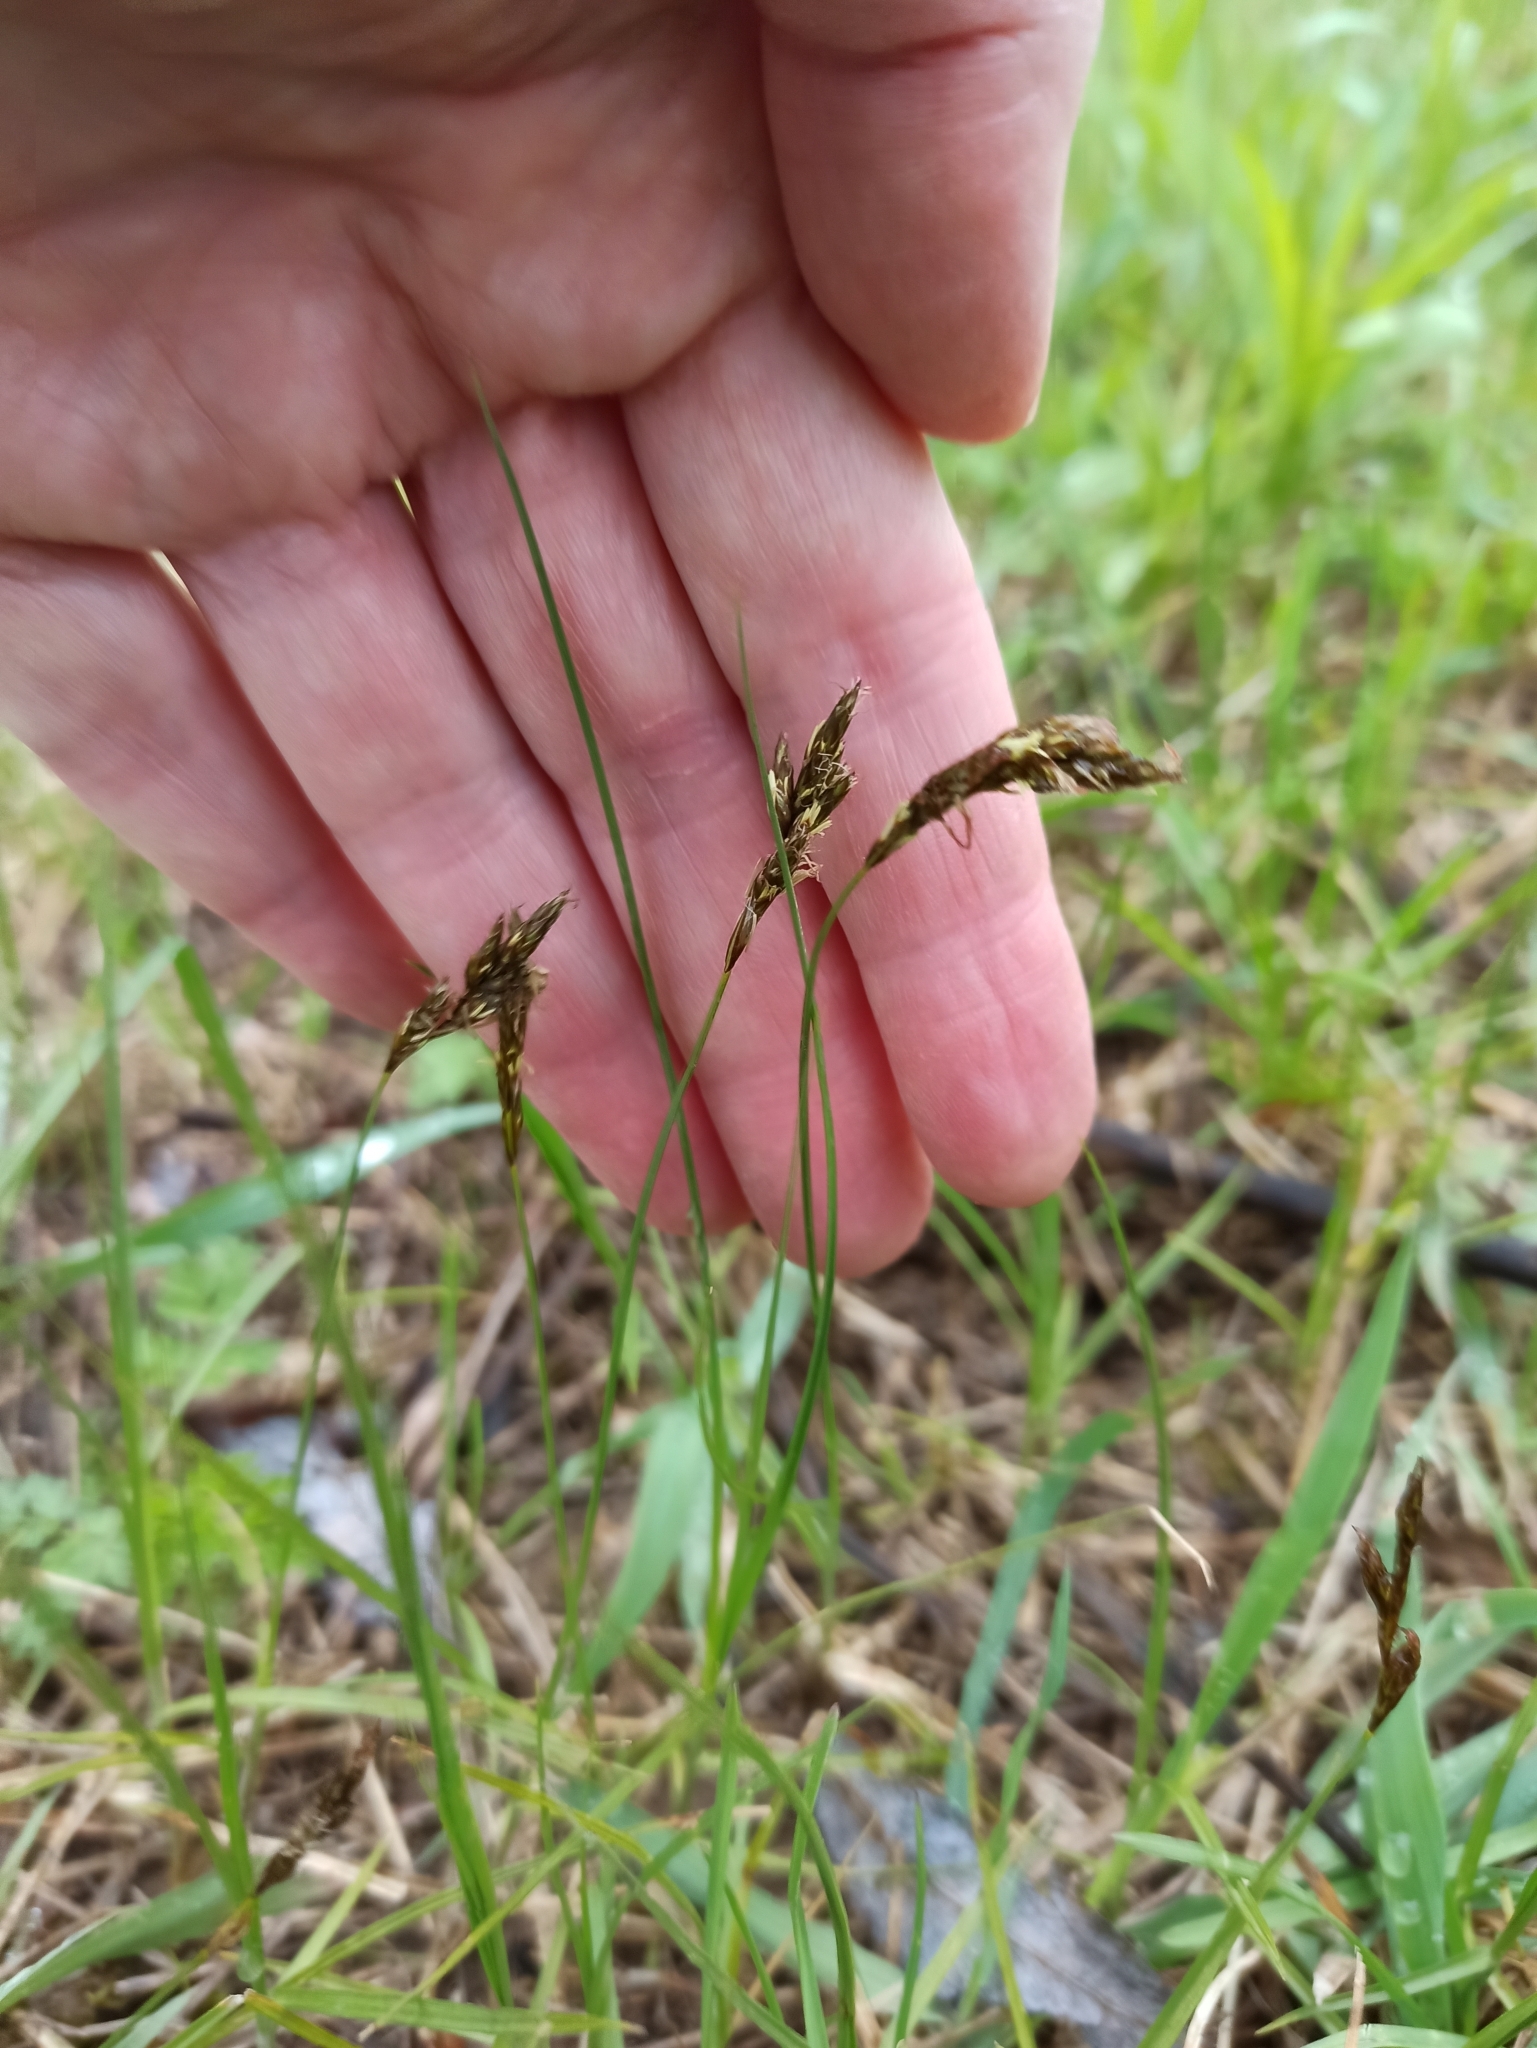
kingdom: Plantae
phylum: Tracheophyta
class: Liliopsida
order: Poales
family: Cyperaceae
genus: Carex
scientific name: Carex praecox
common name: Early sedge
